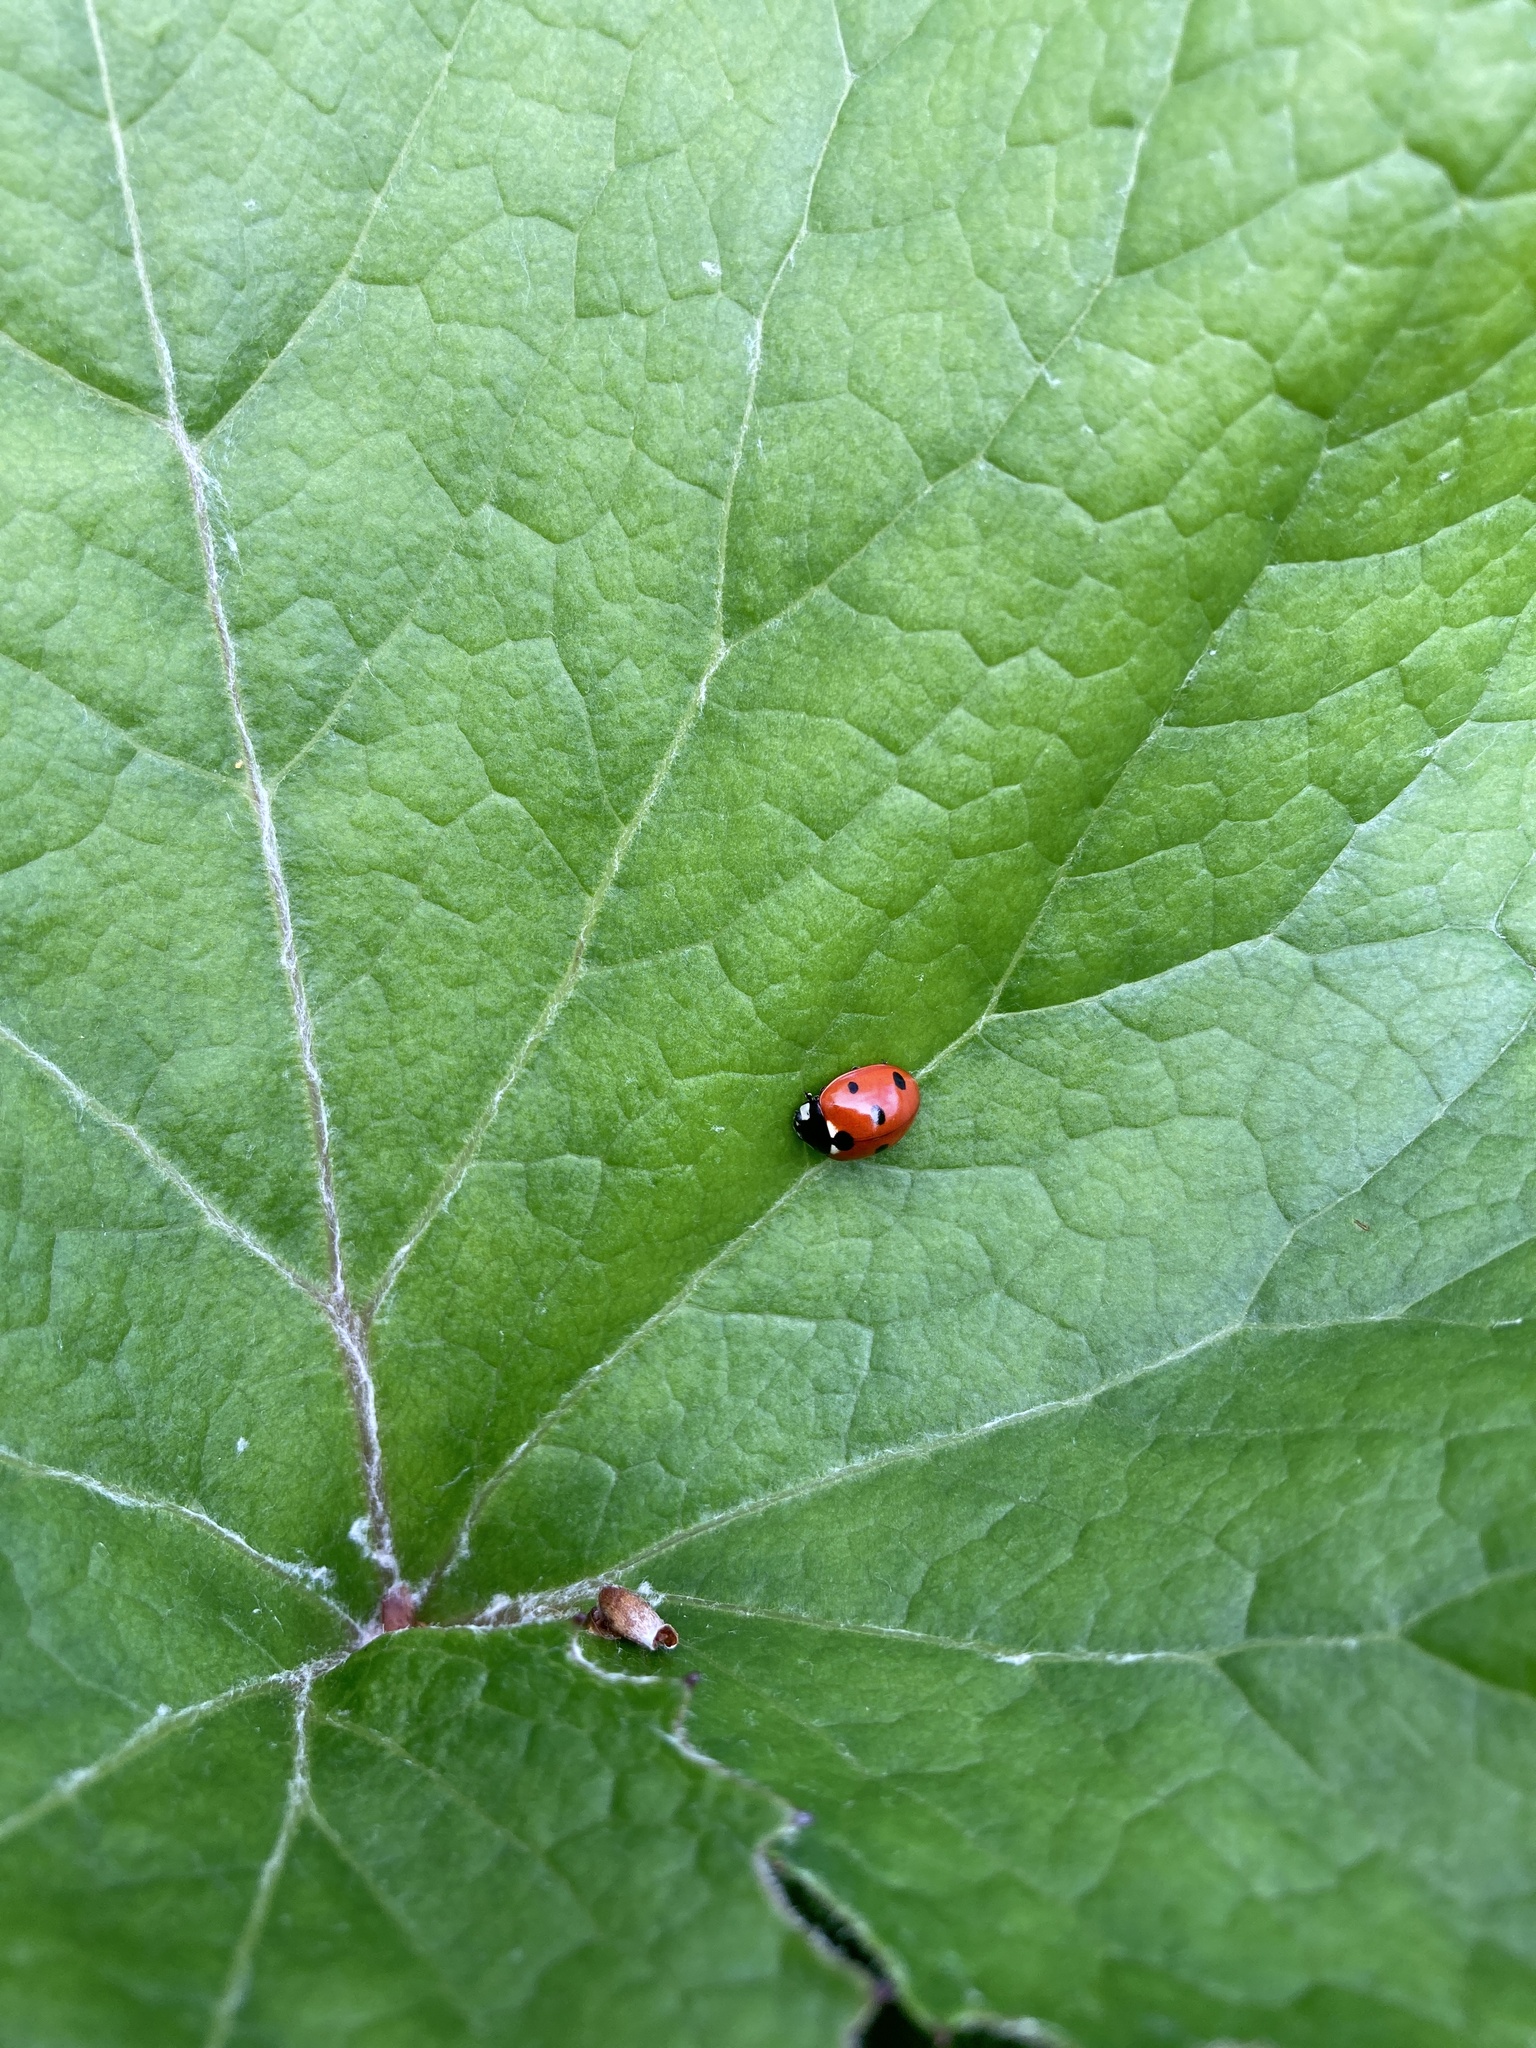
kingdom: Animalia
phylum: Arthropoda
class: Insecta
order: Coleoptera
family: Coccinellidae
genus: Coccinella
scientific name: Coccinella septempunctata
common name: Sevenspotted lady beetle
